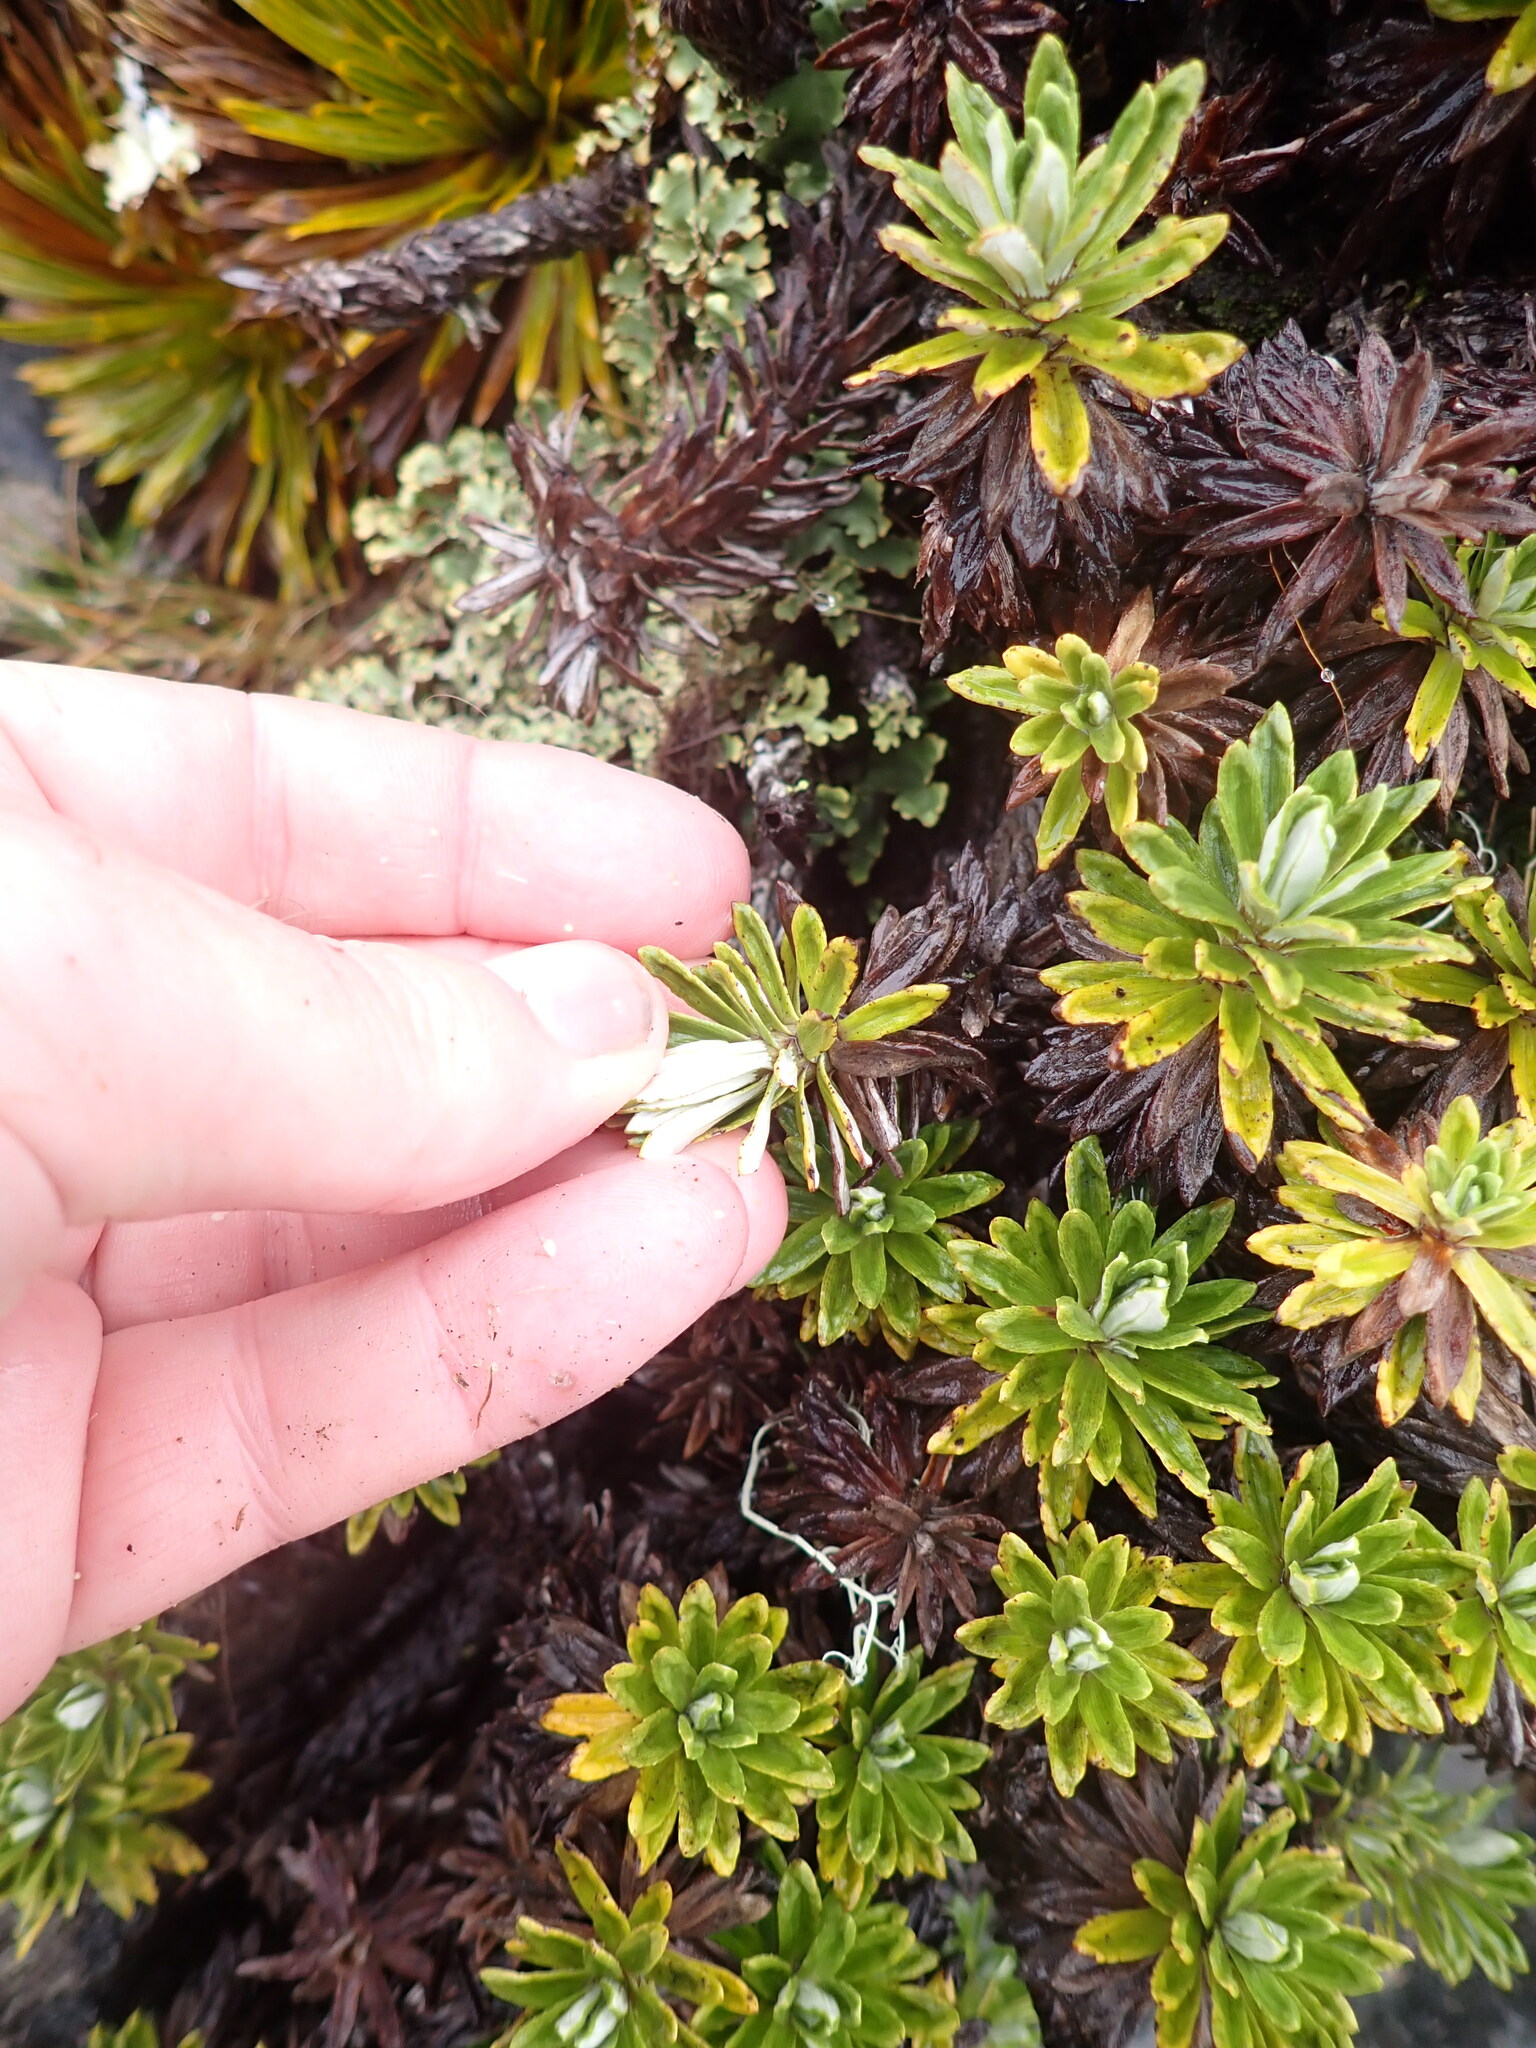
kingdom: Plantae
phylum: Tracheophyta
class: Magnoliopsida
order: Asterales
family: Asteraceae
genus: Celmisia
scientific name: Celmisia walkeri
